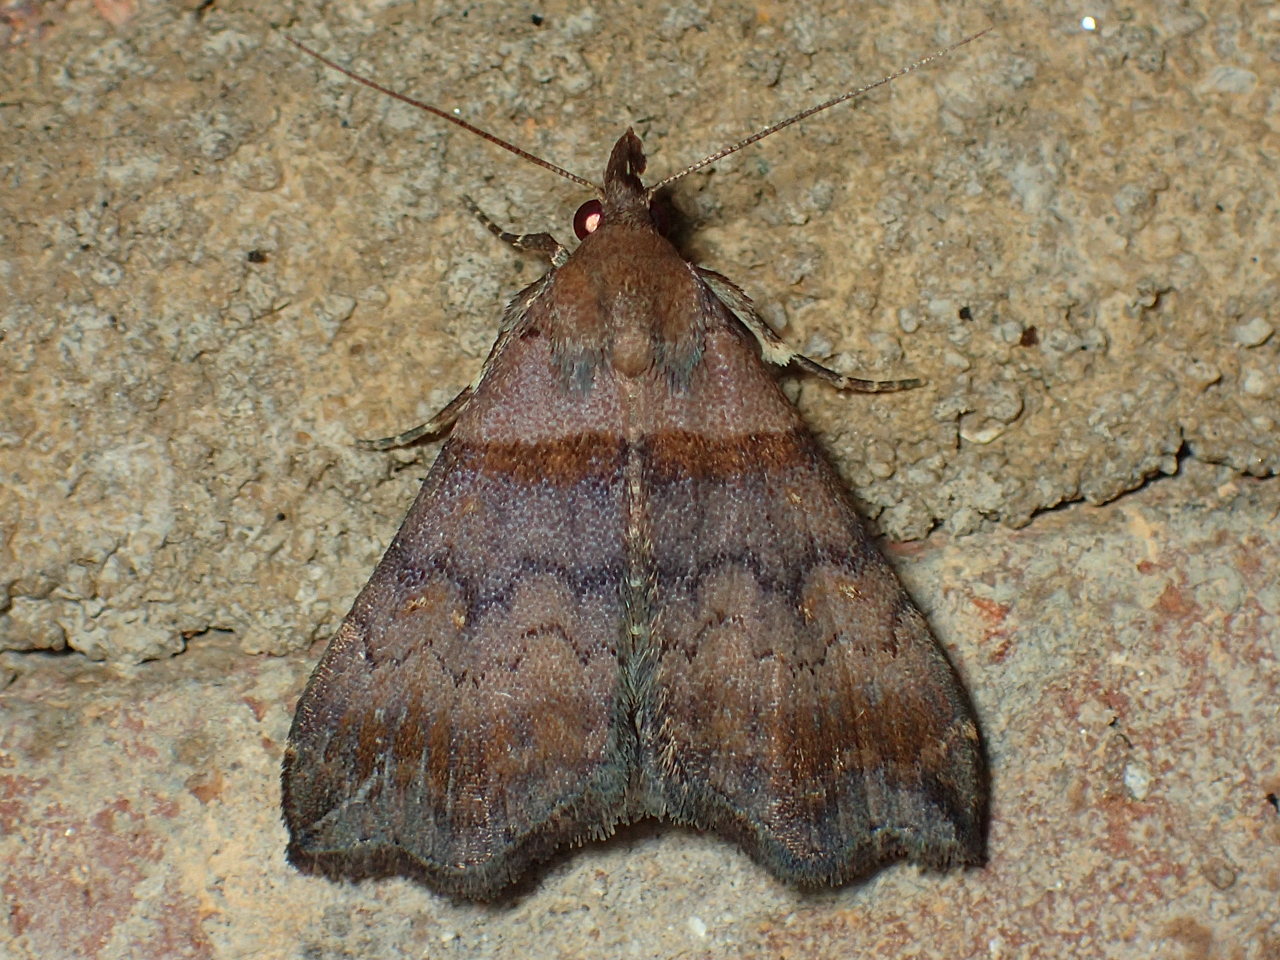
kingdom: Animalia
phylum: Arthropoda
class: Insecta
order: Lepidoptera
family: Erebidae
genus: Lascoria
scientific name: Lascoria ambigualis
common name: Ambiguous moth
